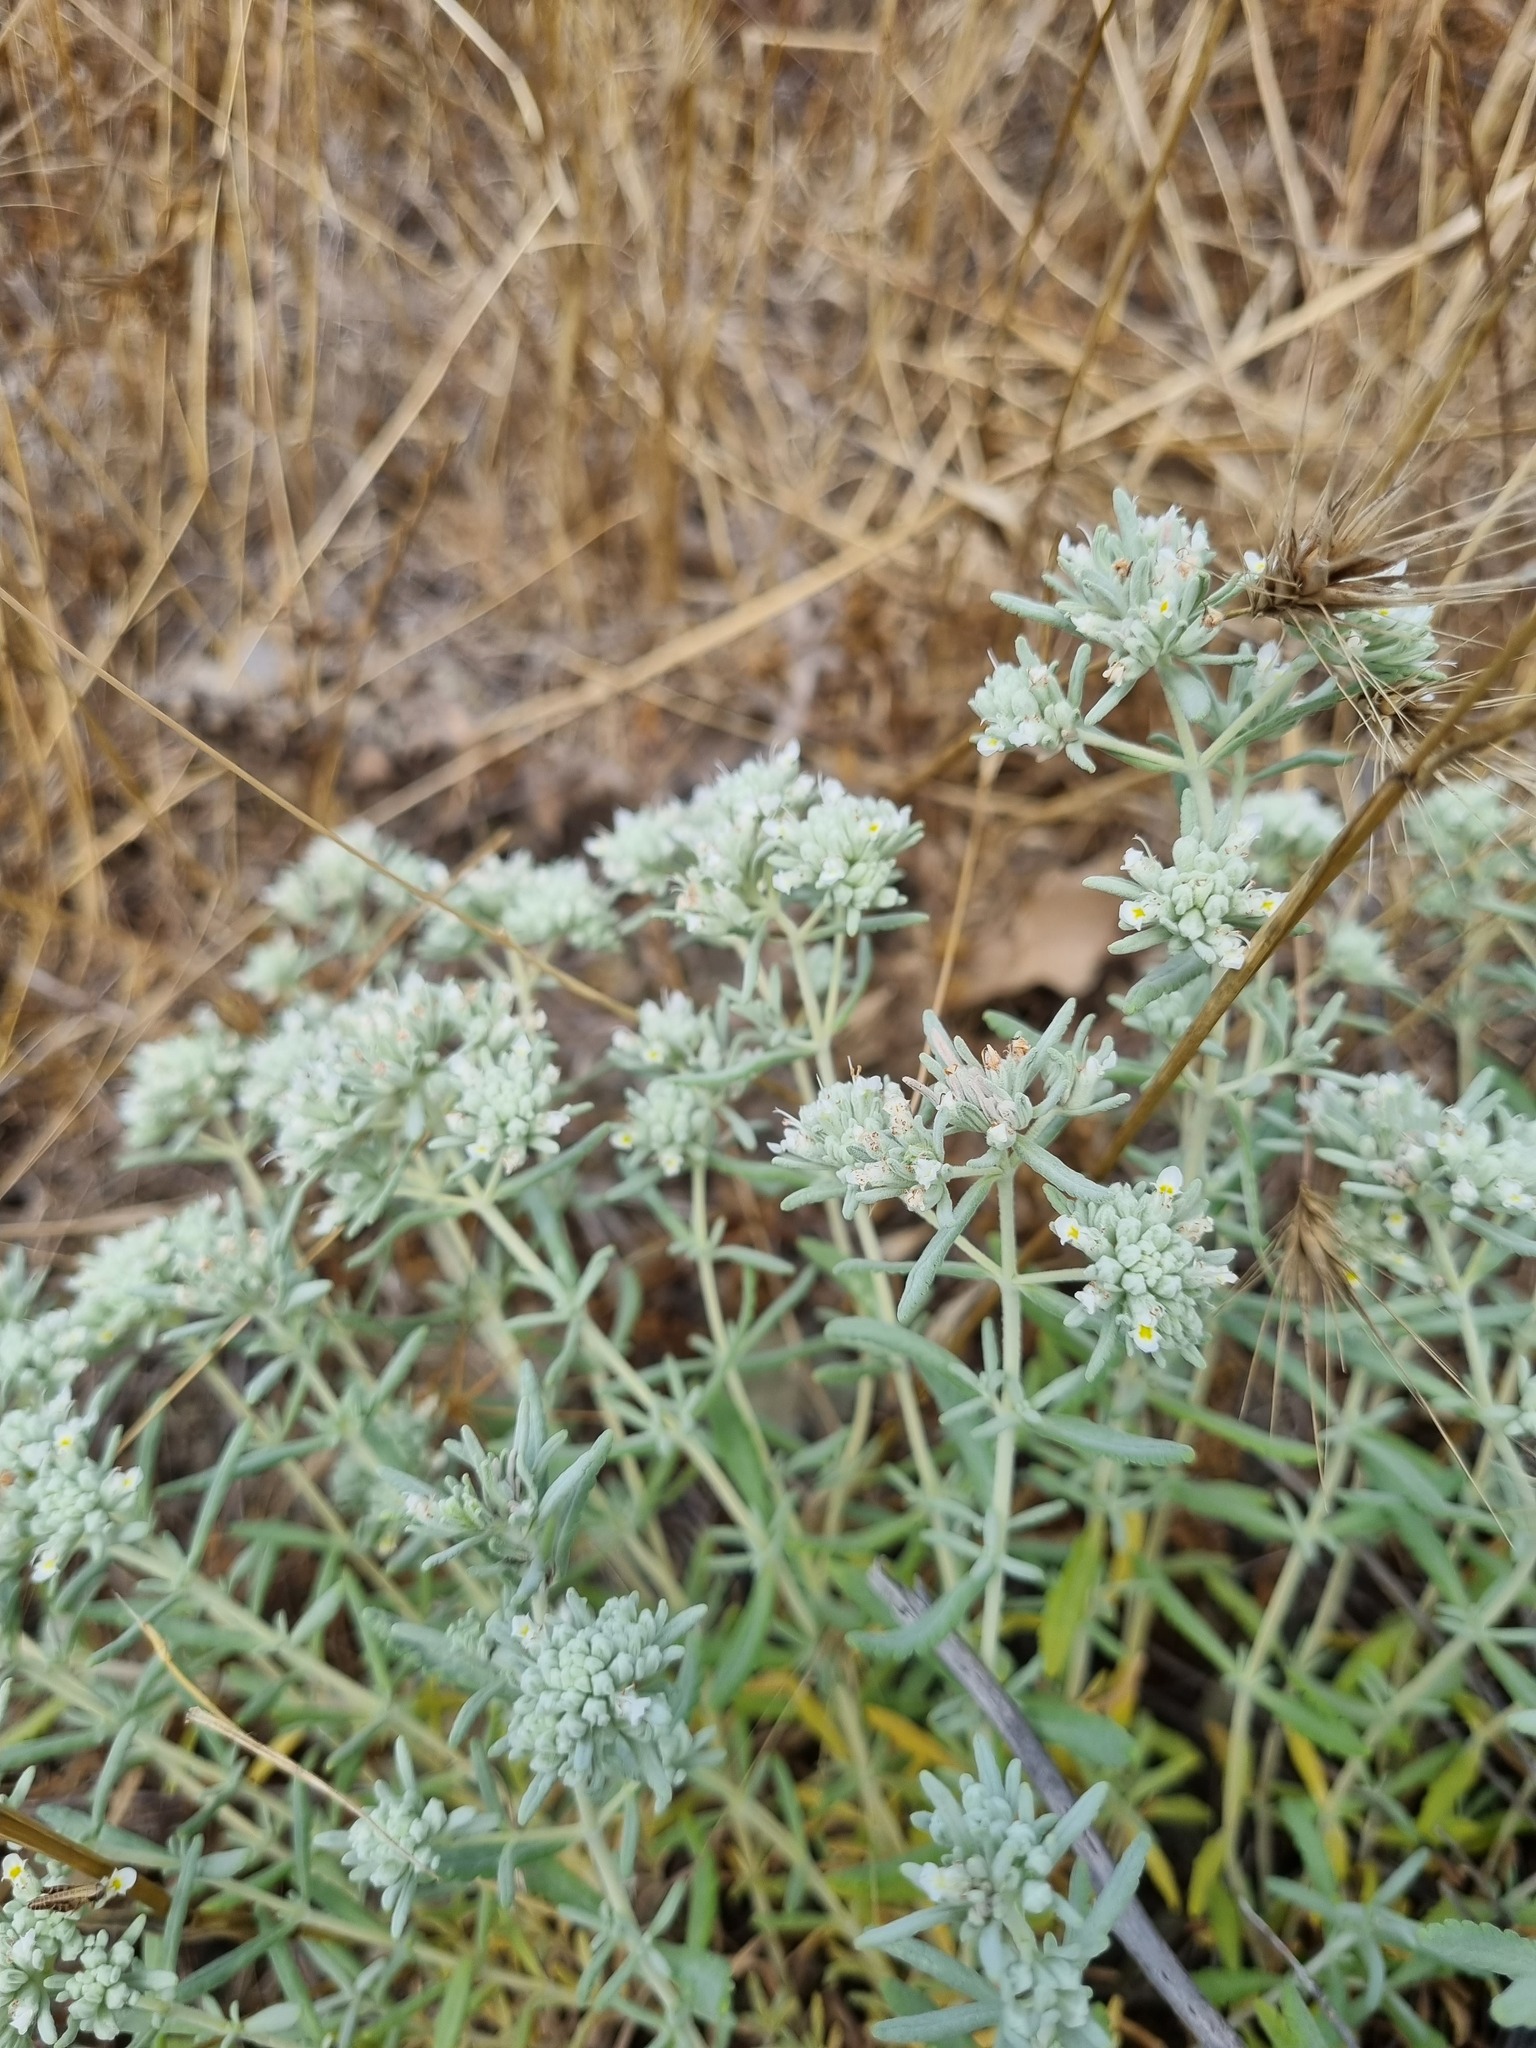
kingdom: Plantae
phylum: Tracheophyta
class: Magnoliopsida
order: Lamiales
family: Lamiaceae
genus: Teucrium
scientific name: Teucrium polium
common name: Poley
